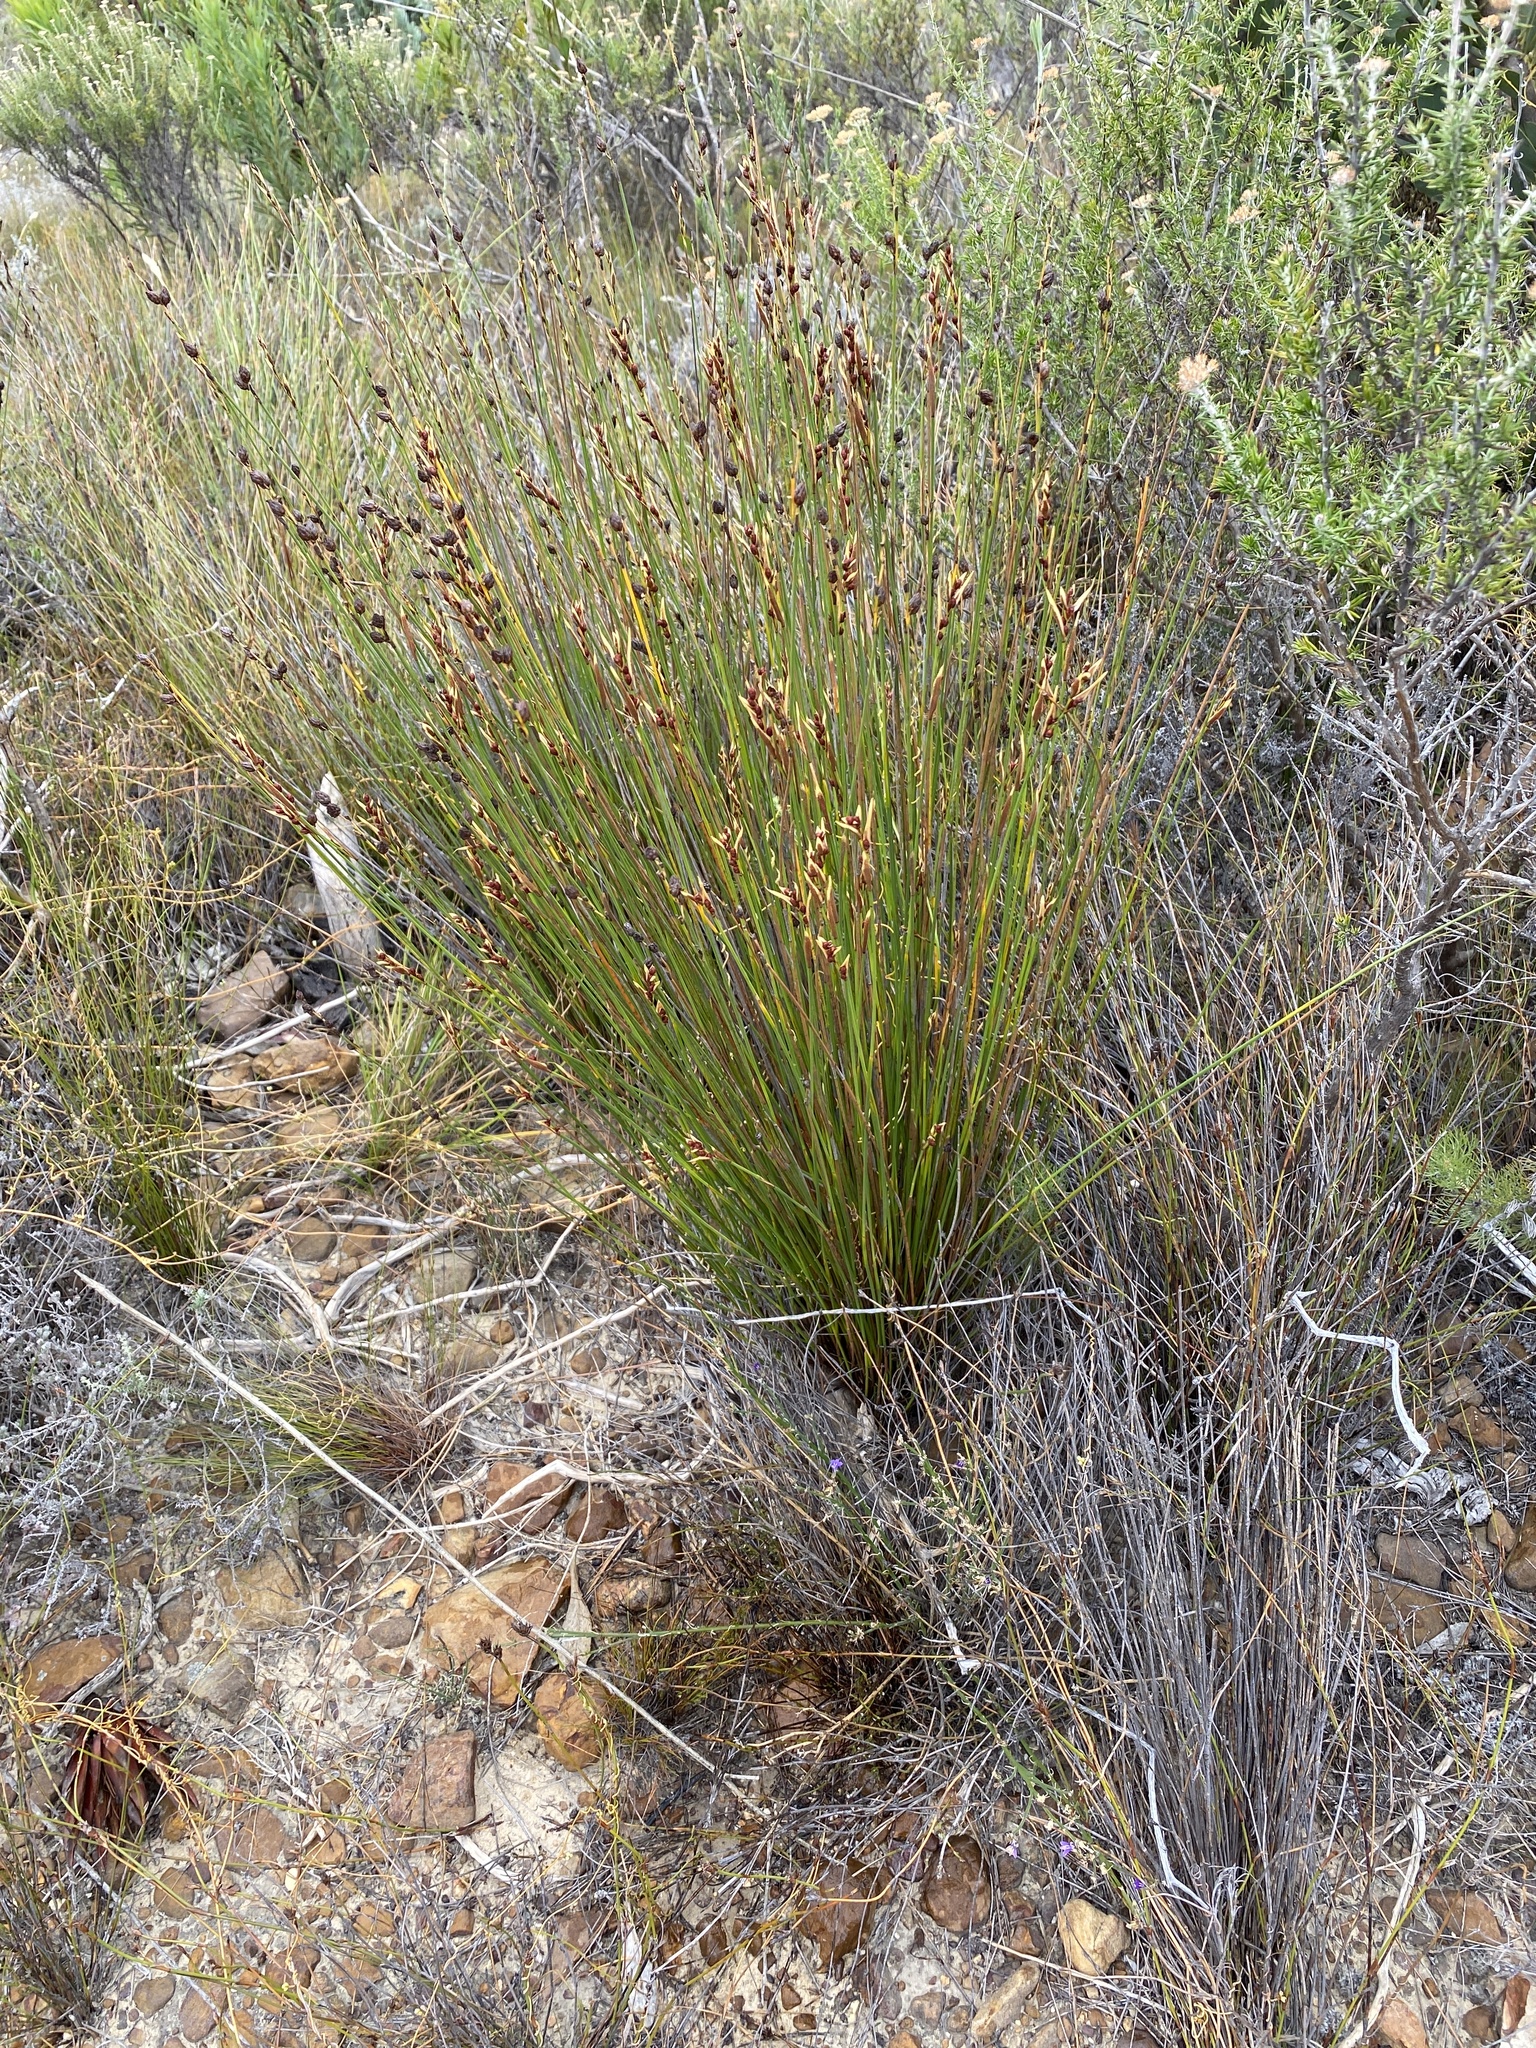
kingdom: Plantae
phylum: Tracheophyta
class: Liliopsida
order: Poales
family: Restionaceae
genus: Hypodiscus
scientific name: Hypodiscus laevigatus
